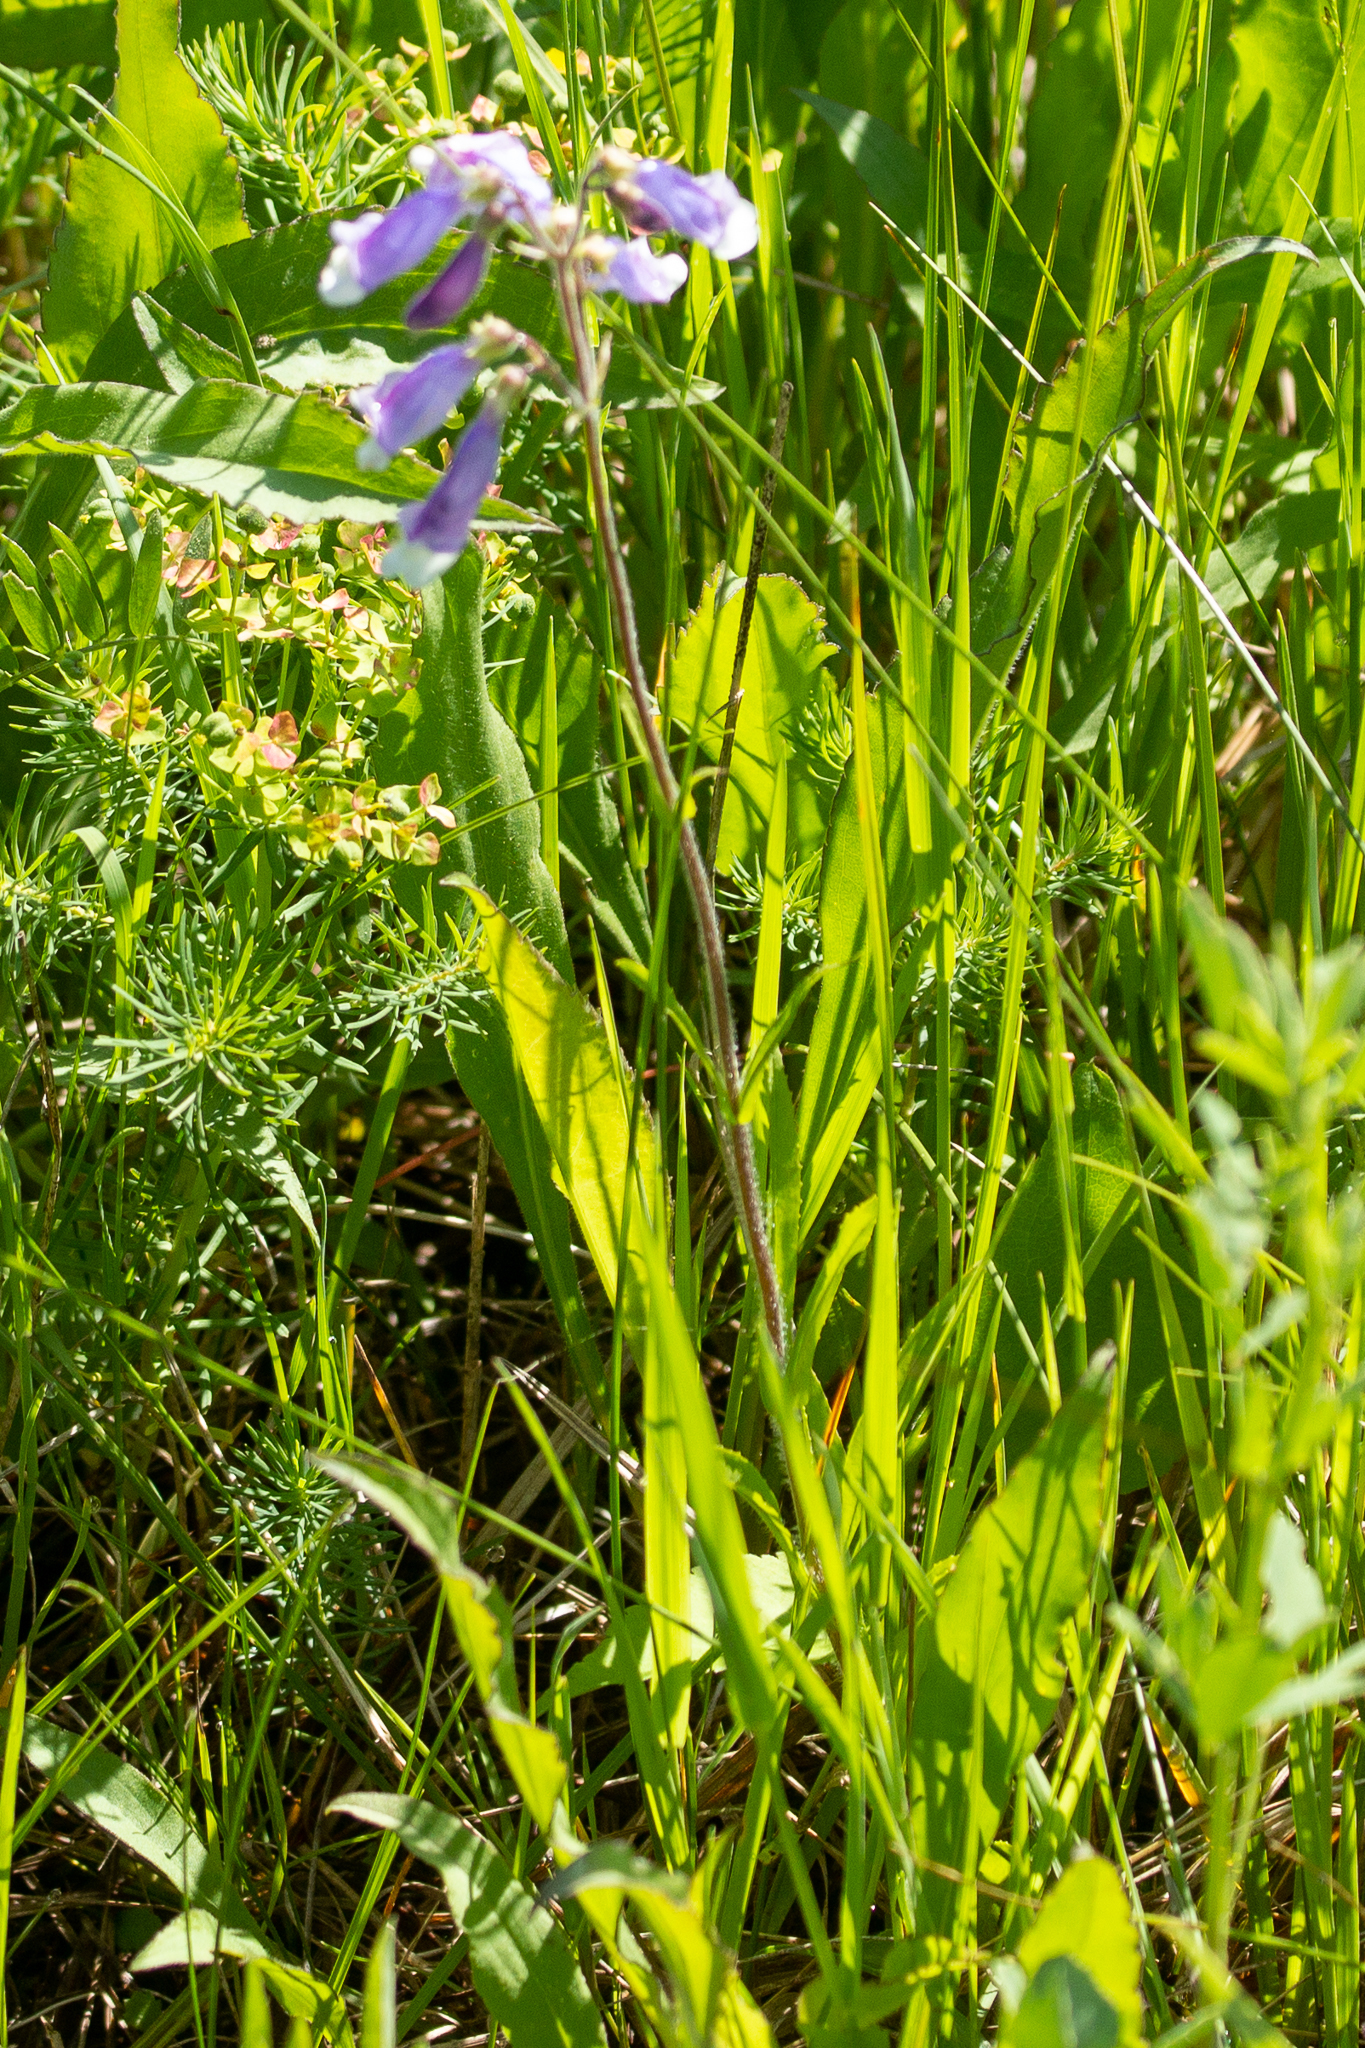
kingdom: Plantae
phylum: Tracheophyta
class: Magnoliopsida
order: Lamiales
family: Plantaginaceae
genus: Penstemon
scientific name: Penstemon hirsutus
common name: Hairy beardtongue
